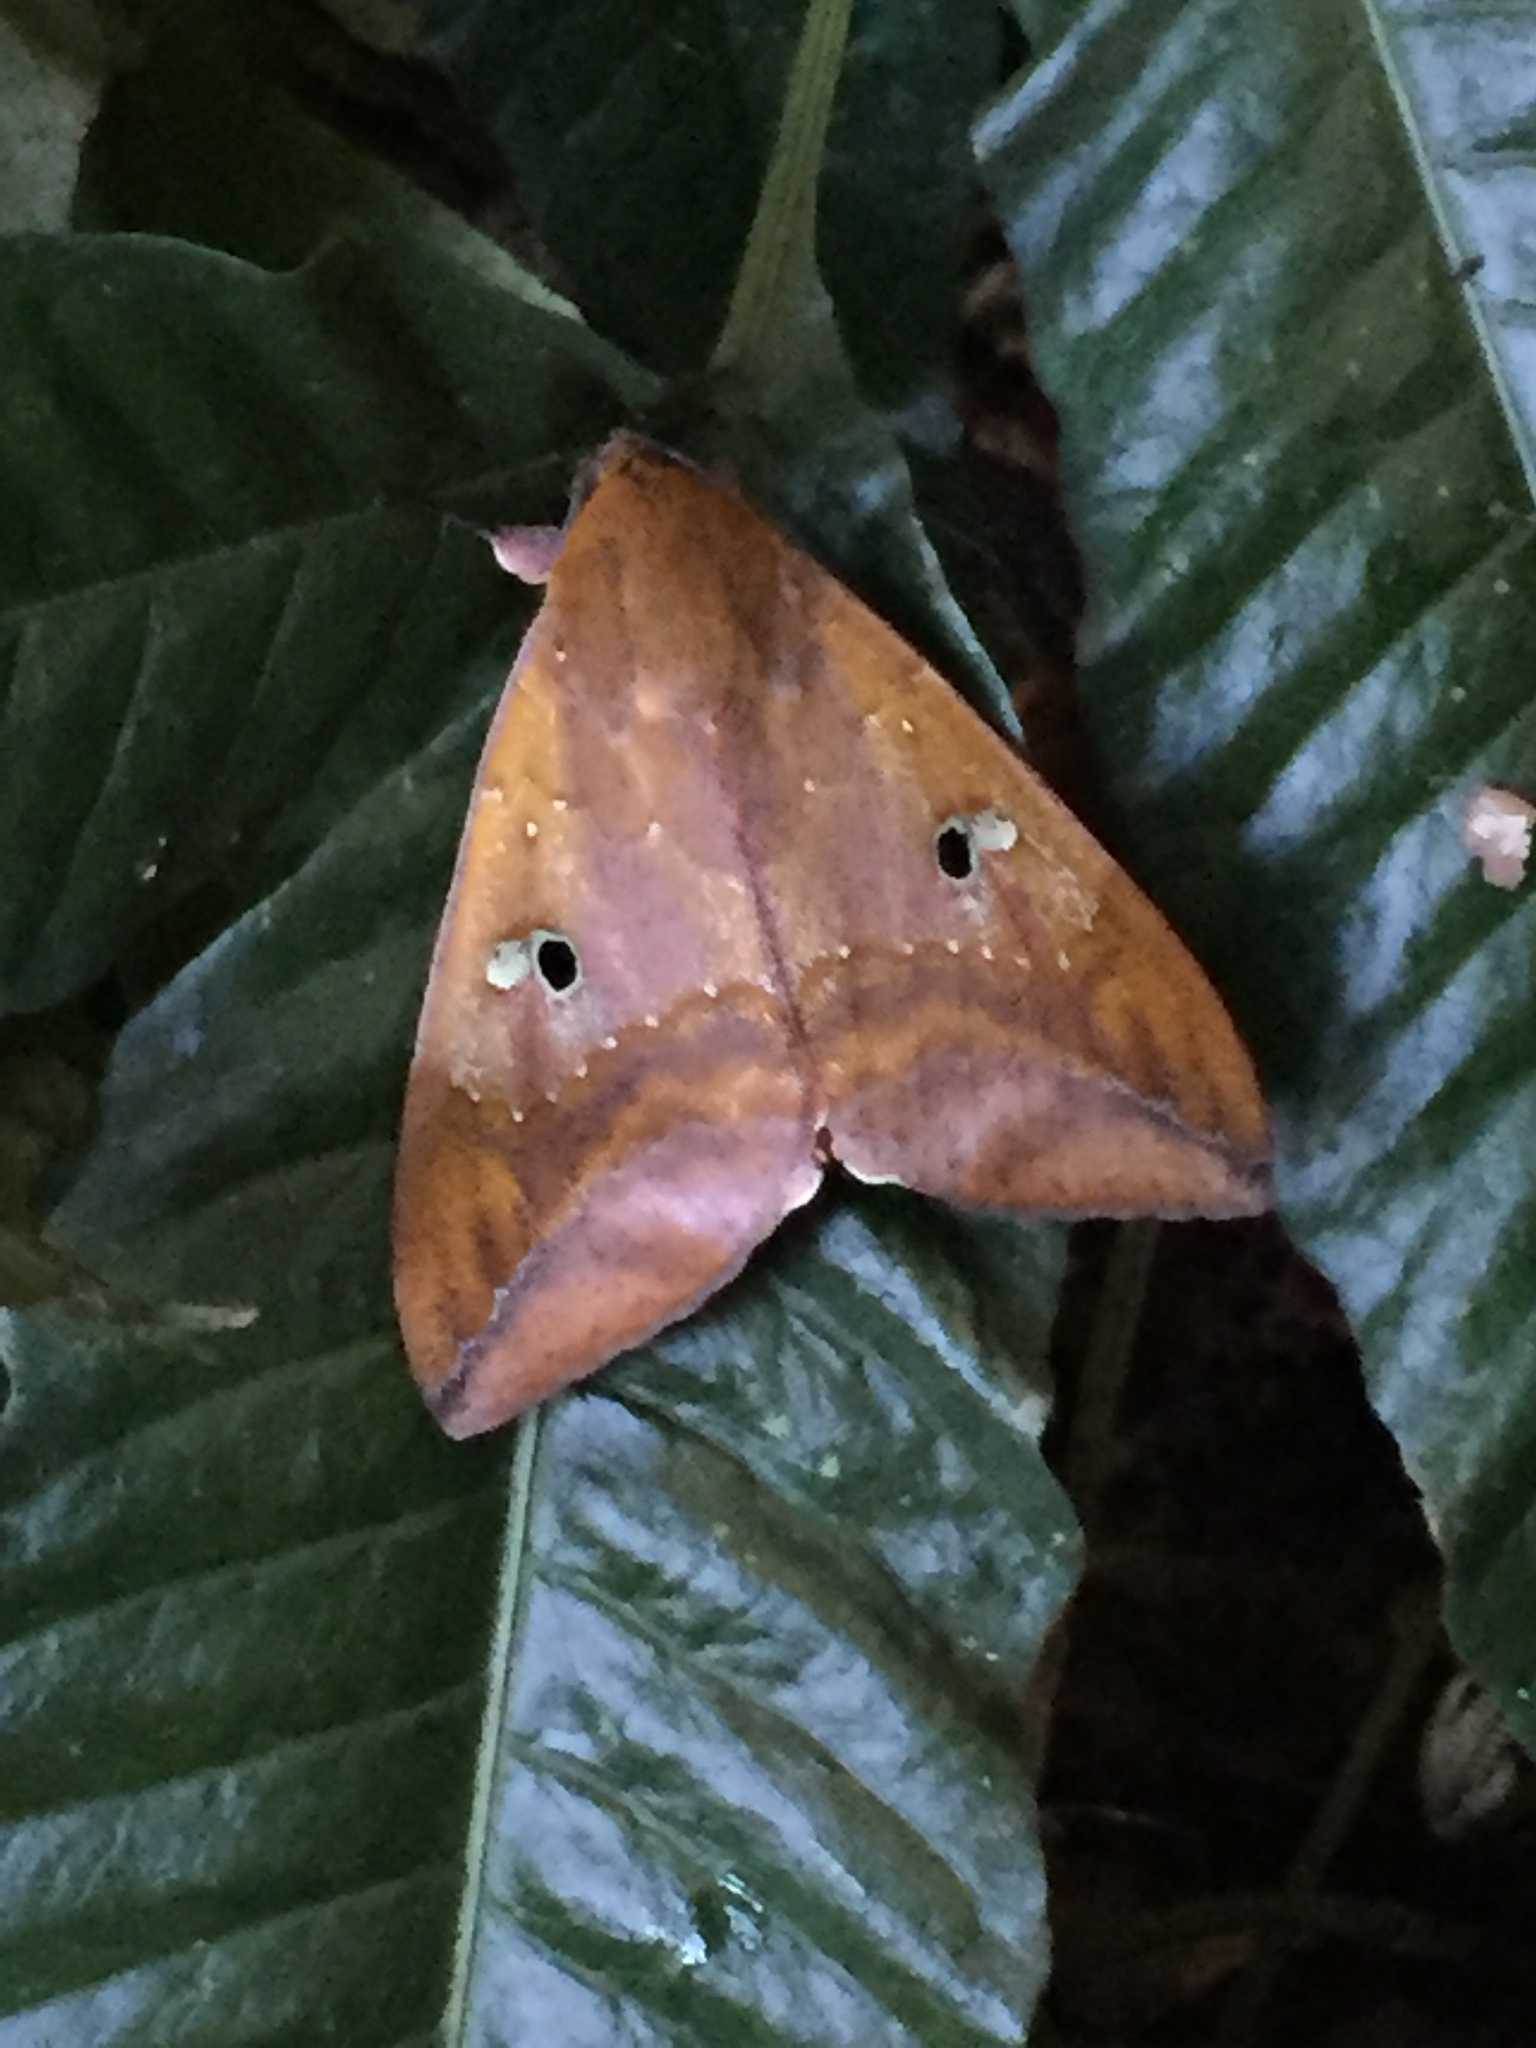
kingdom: Animalia
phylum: Arthropoda
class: Insecta
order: Lepidoptera
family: Erebidae
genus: Thyas
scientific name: Thyas honesta
